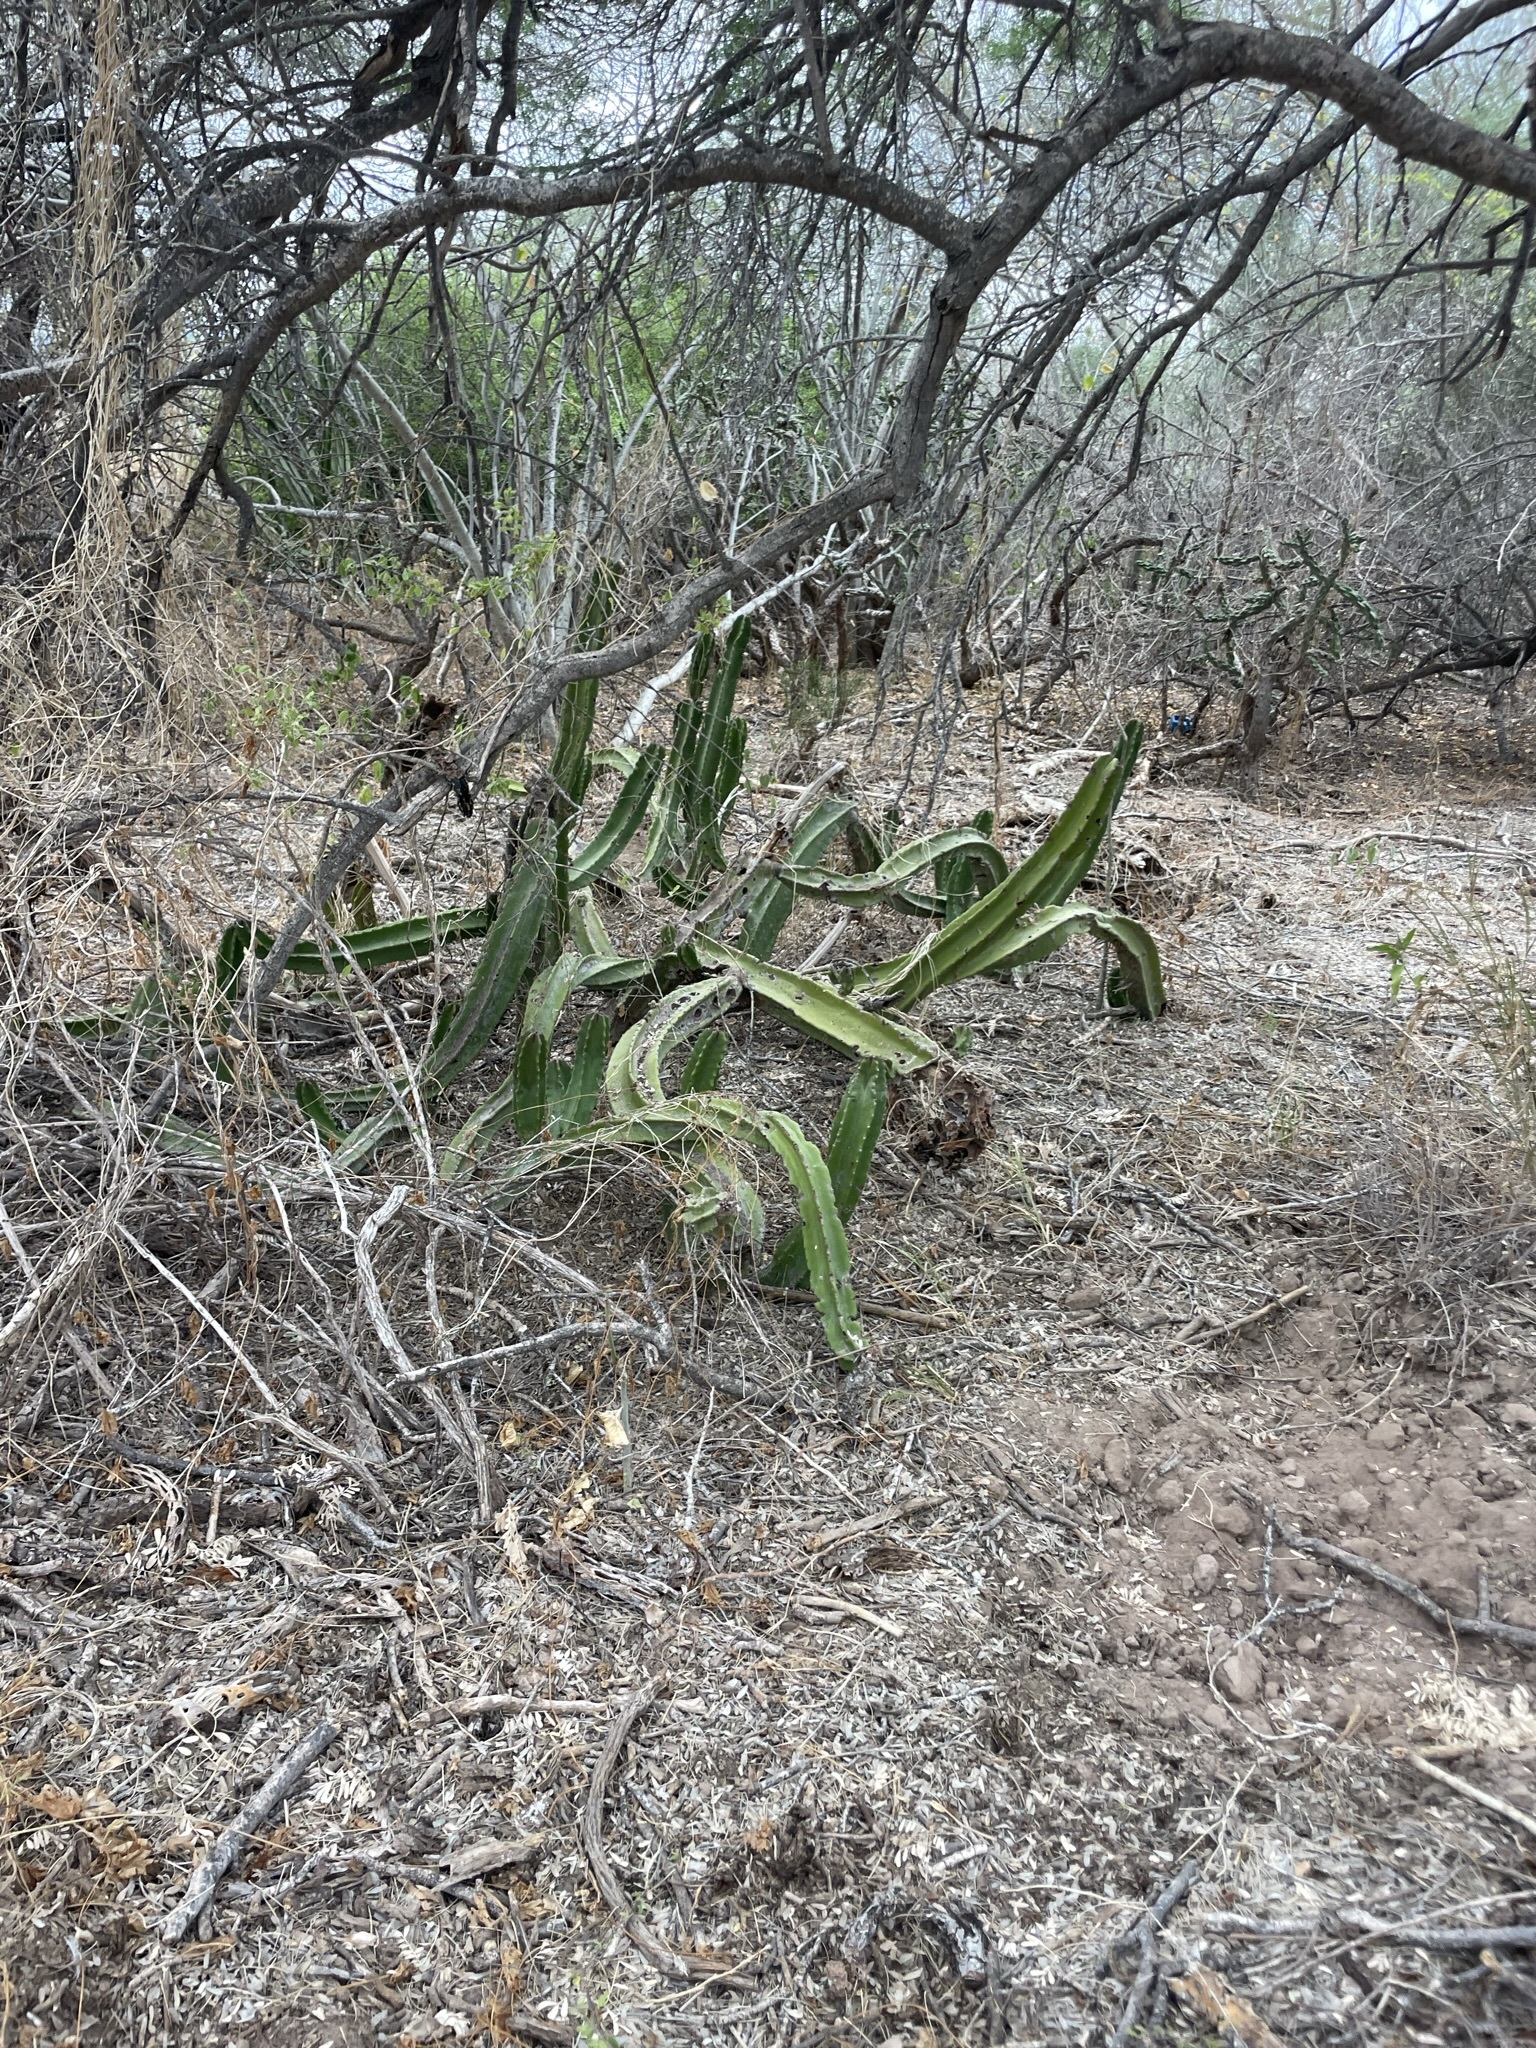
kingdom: Plantae
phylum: Tracheophyta
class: Magnoliopsida
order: Caryophyllales
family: Cactaceae
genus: Pachycereus
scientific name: Pachycereus schottii
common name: Senita cactus
